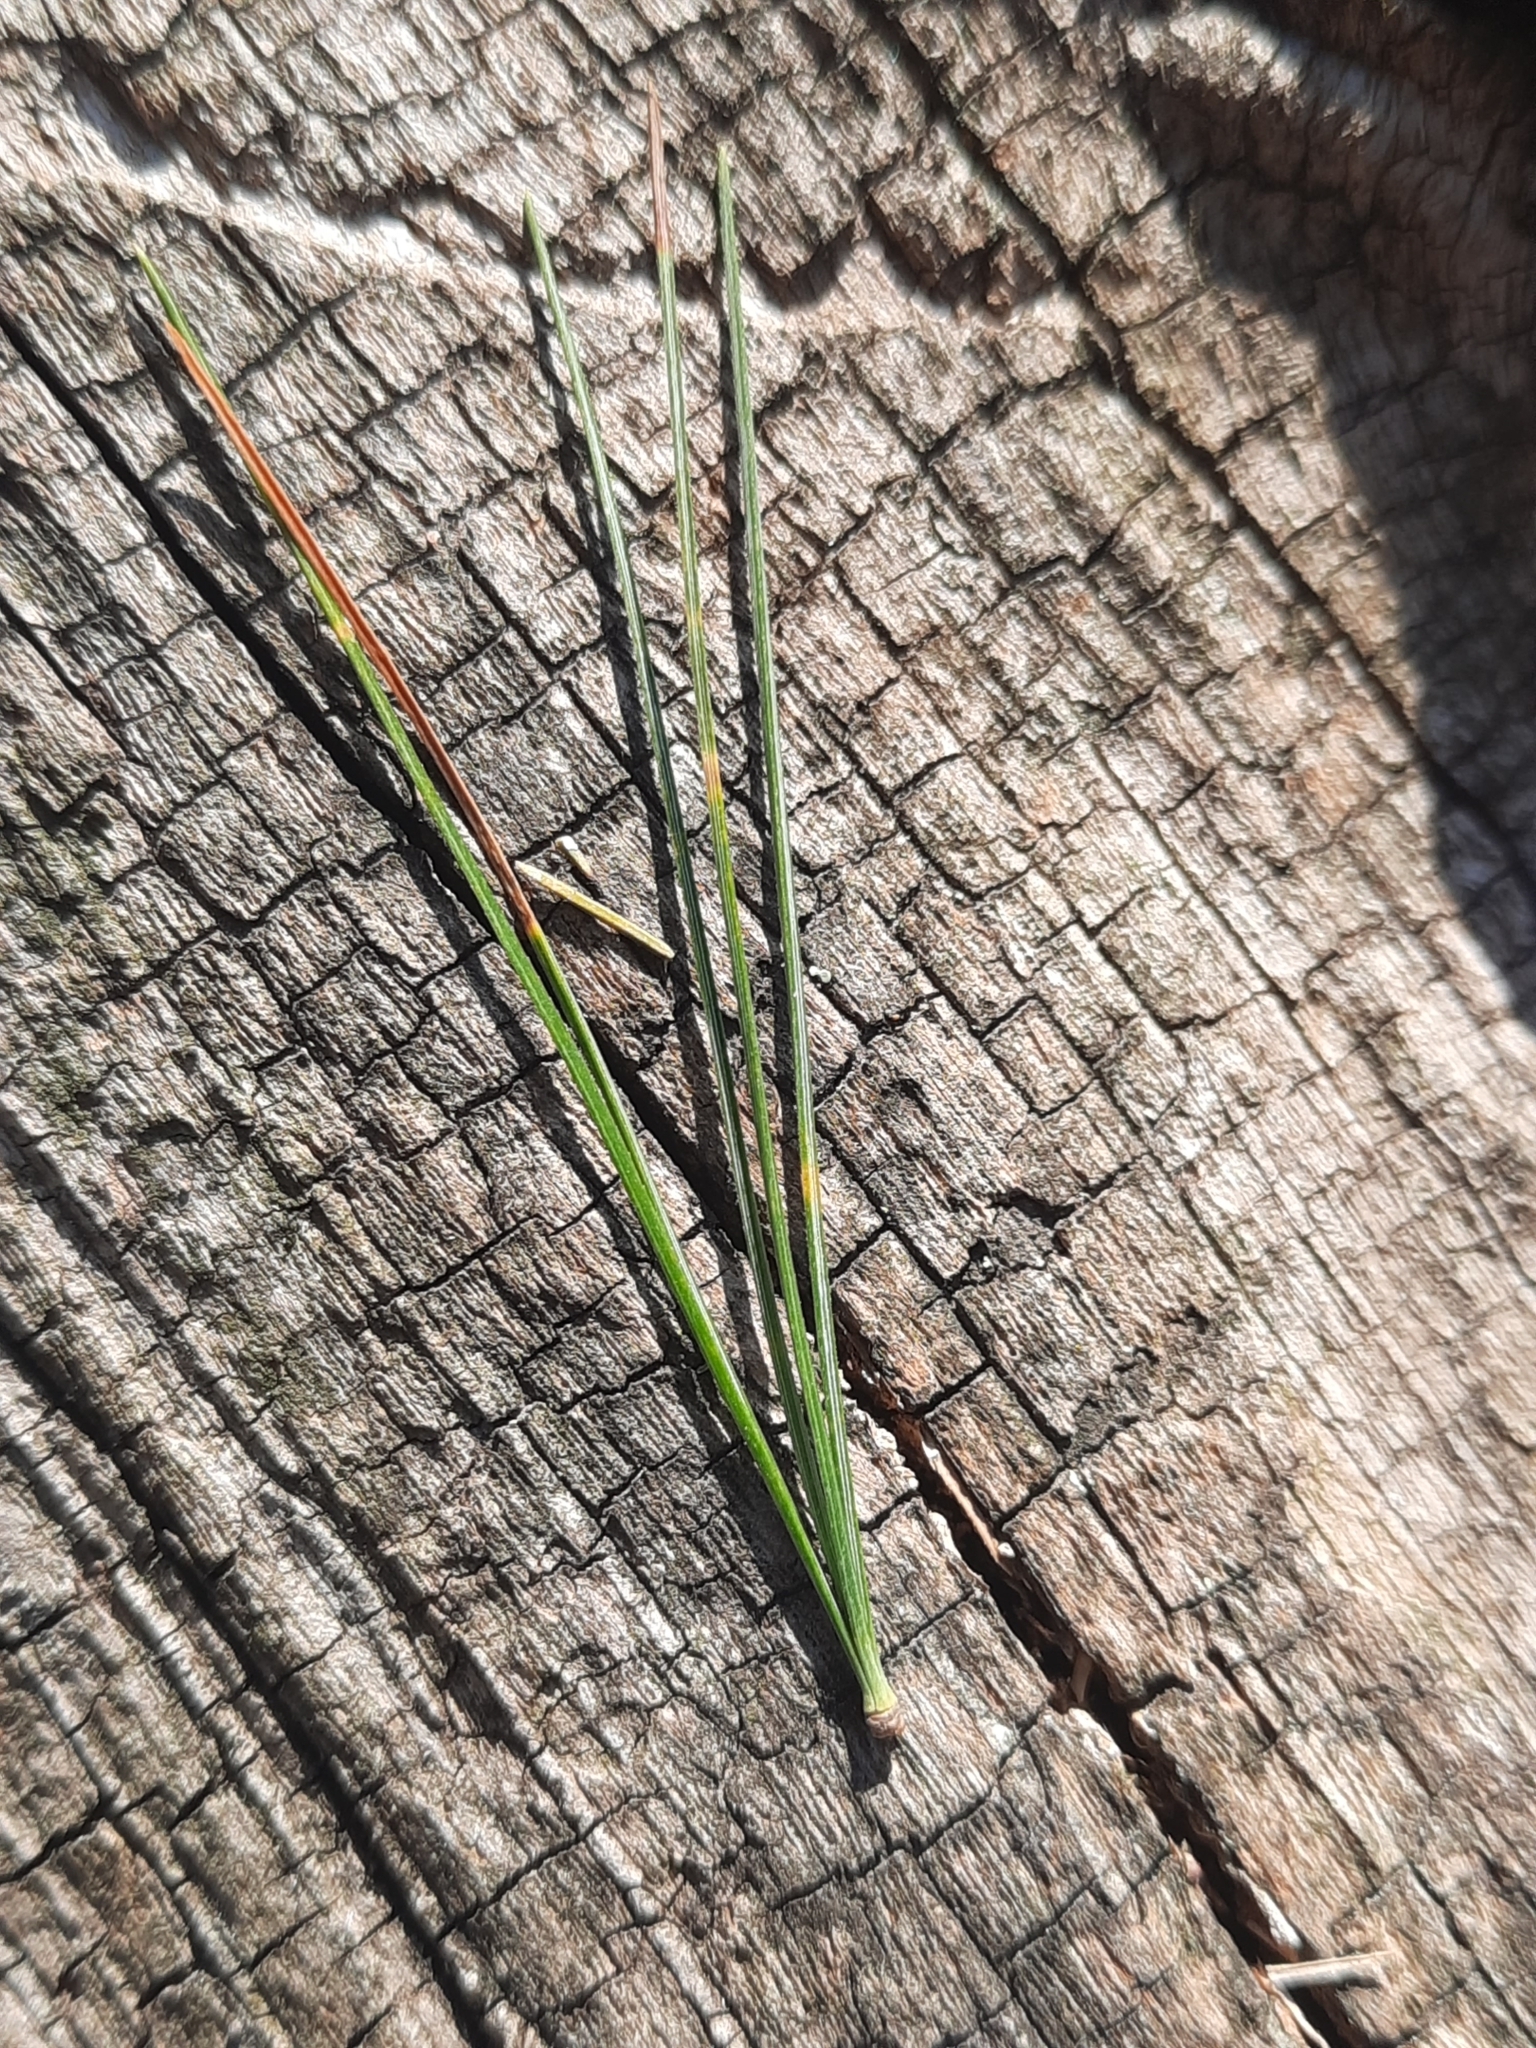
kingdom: Plantae
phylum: Tracheophyta
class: Pinopsida
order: Pinales
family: Pinaceae
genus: Pinus
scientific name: Pinus strobus
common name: Weymouth pine
